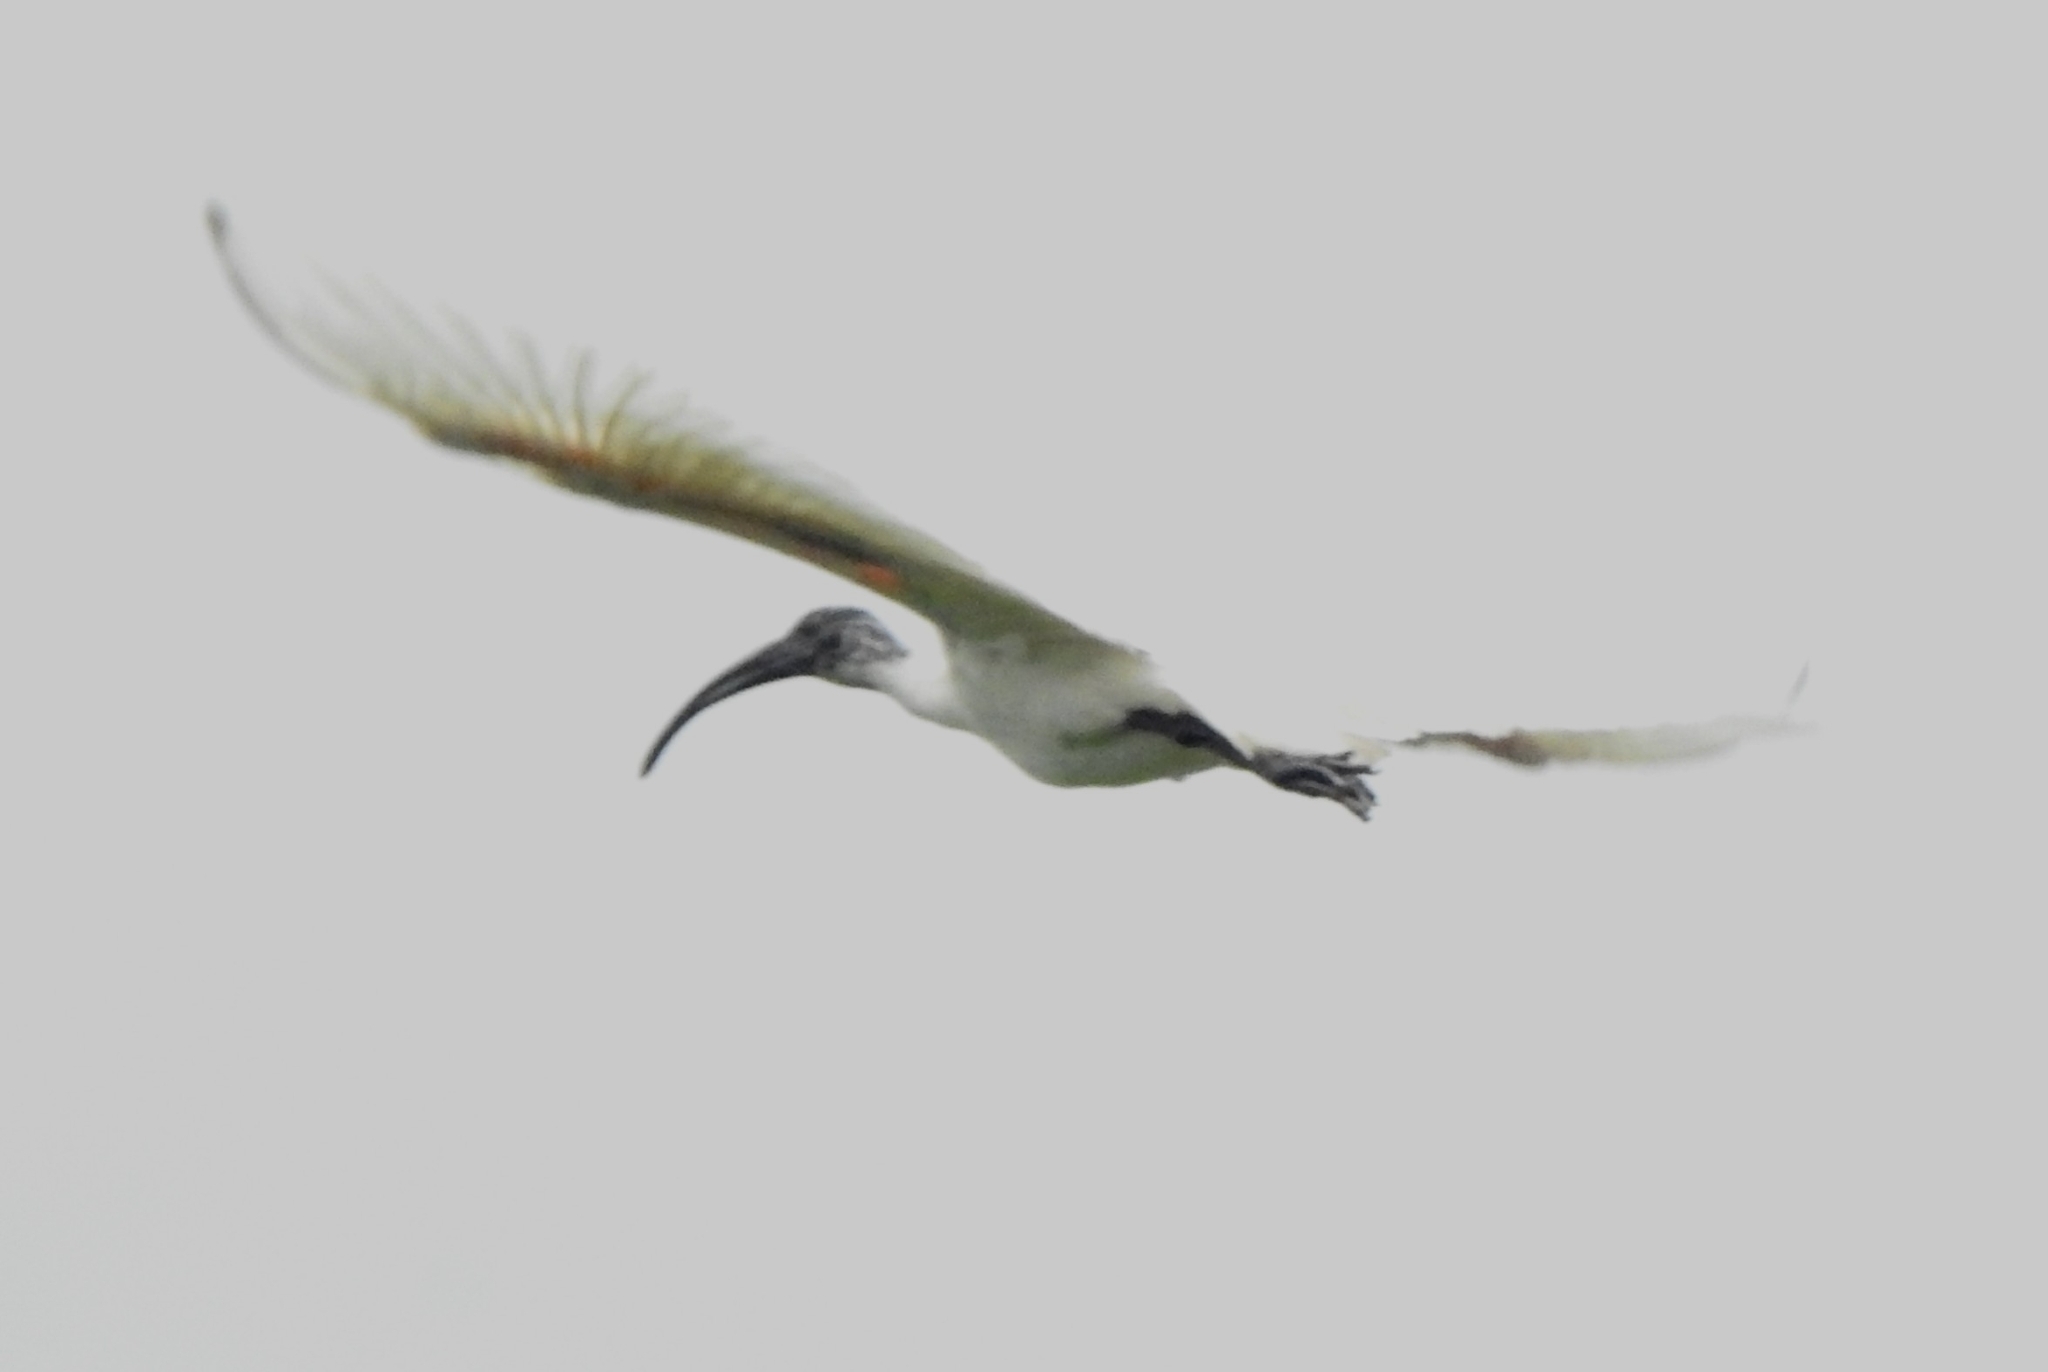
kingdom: Animalia
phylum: Chordata
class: Aves
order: Pelecaniformes
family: Threskiornithidae
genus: Threskiornis
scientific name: Threskiornis melanocephalus
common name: Black-headed ibis
